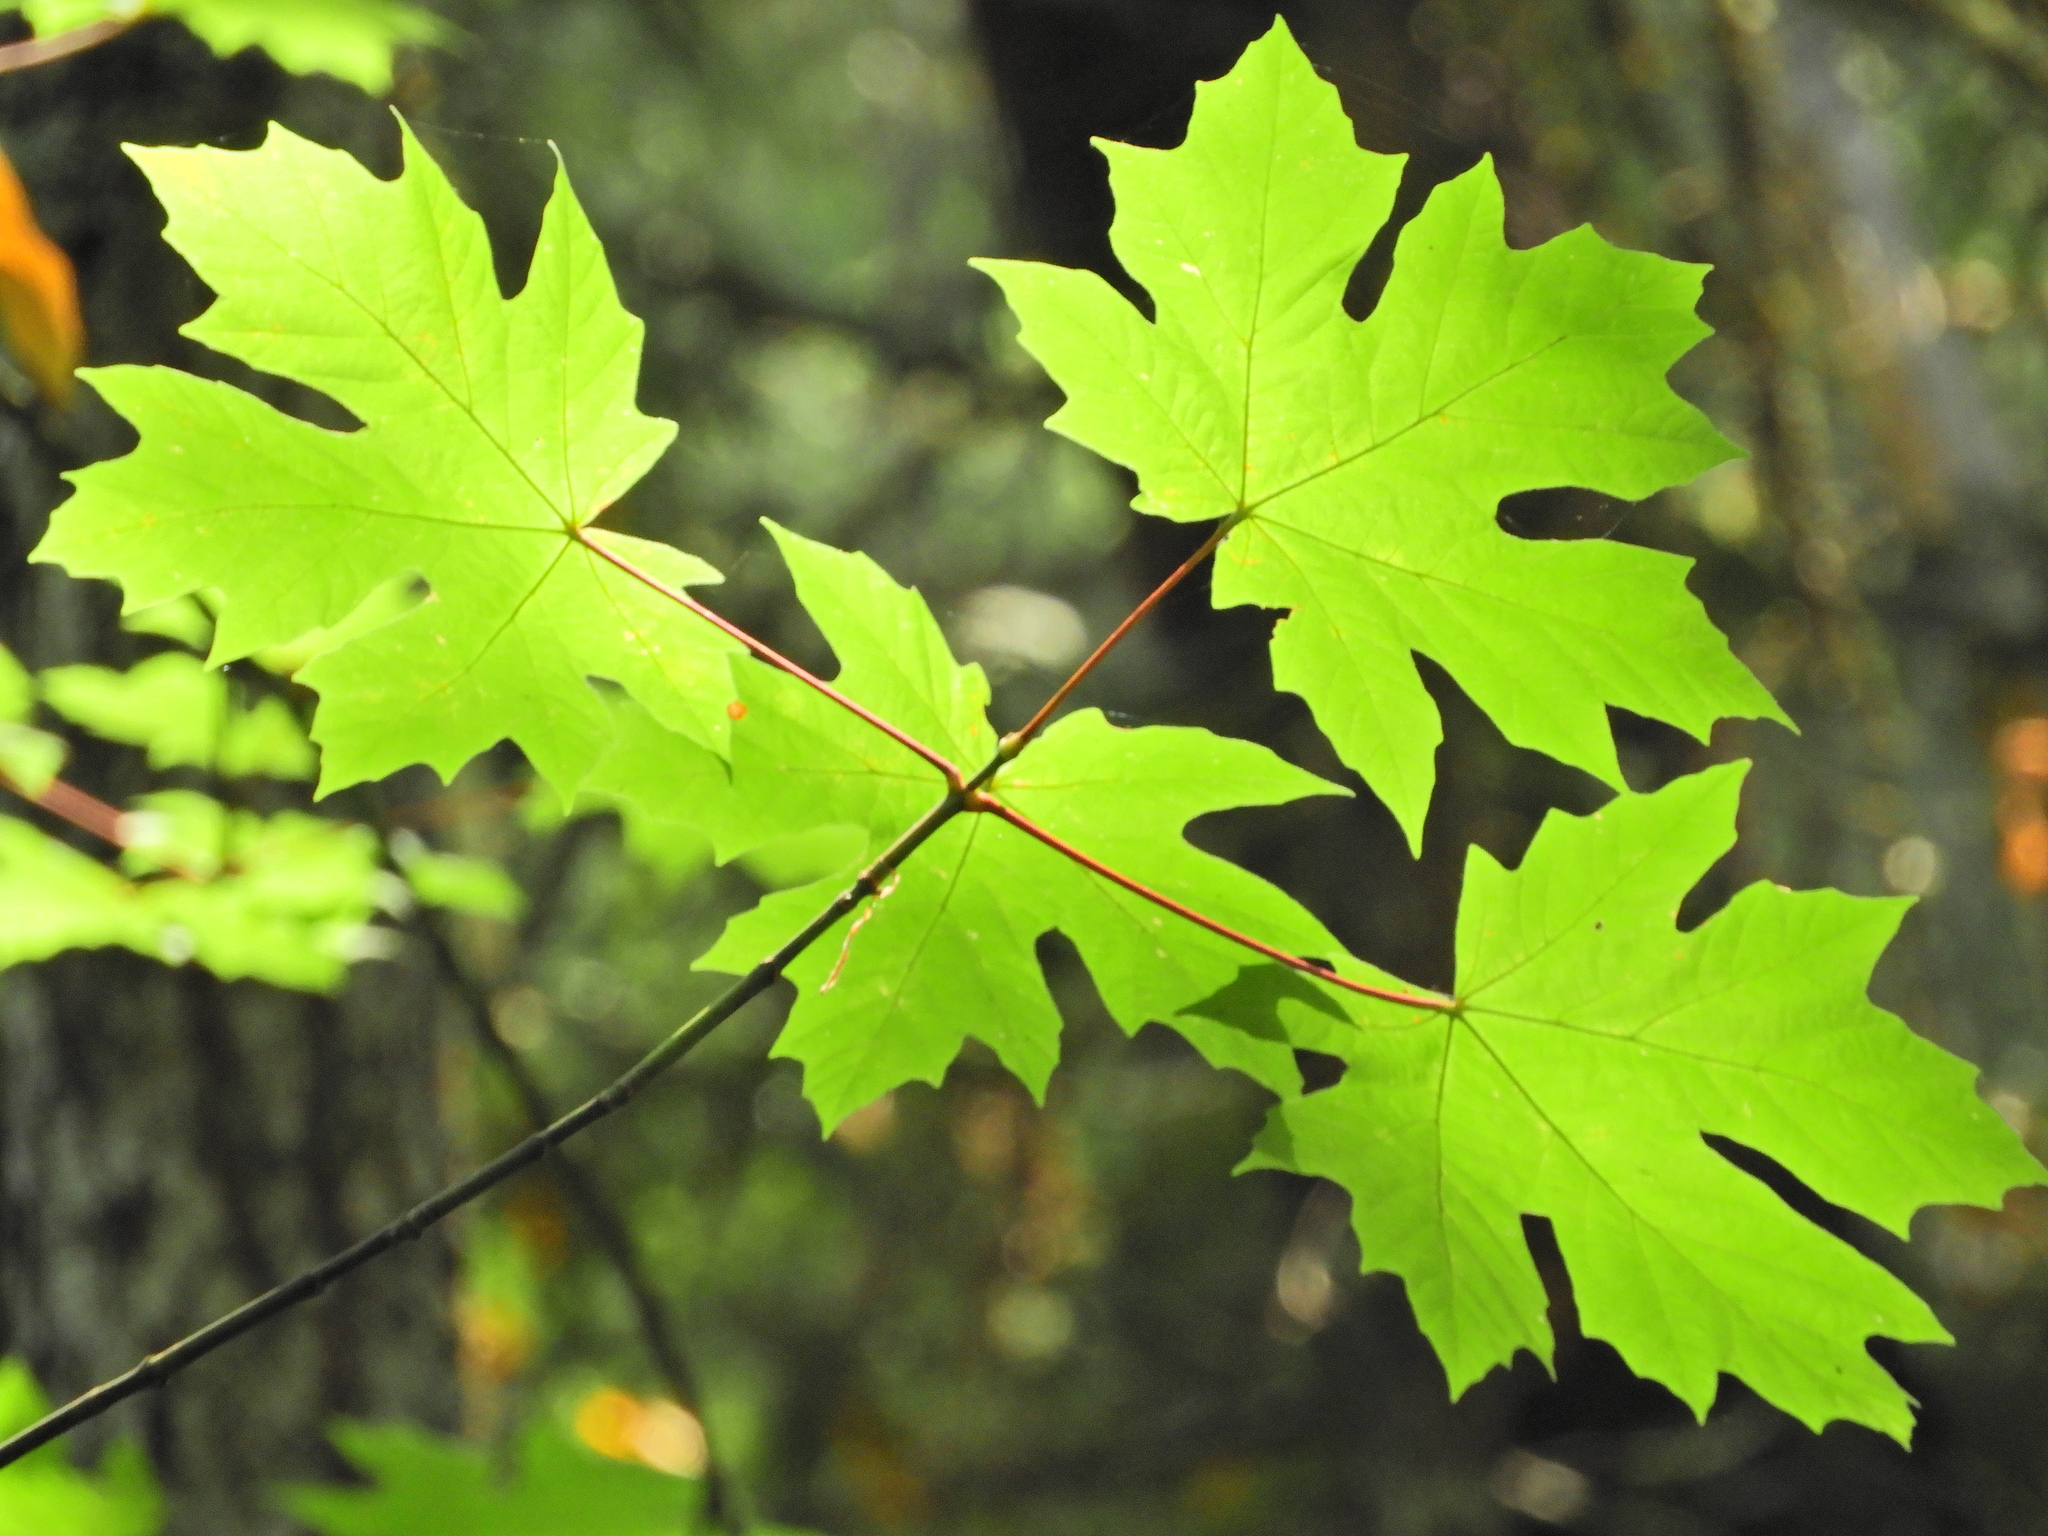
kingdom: Plantae
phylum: Tracheophyta
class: Magnoliopsida
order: Sapindales
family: Sapindaceae
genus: Acer
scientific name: Acer macrophyllum
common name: Oregon maple
